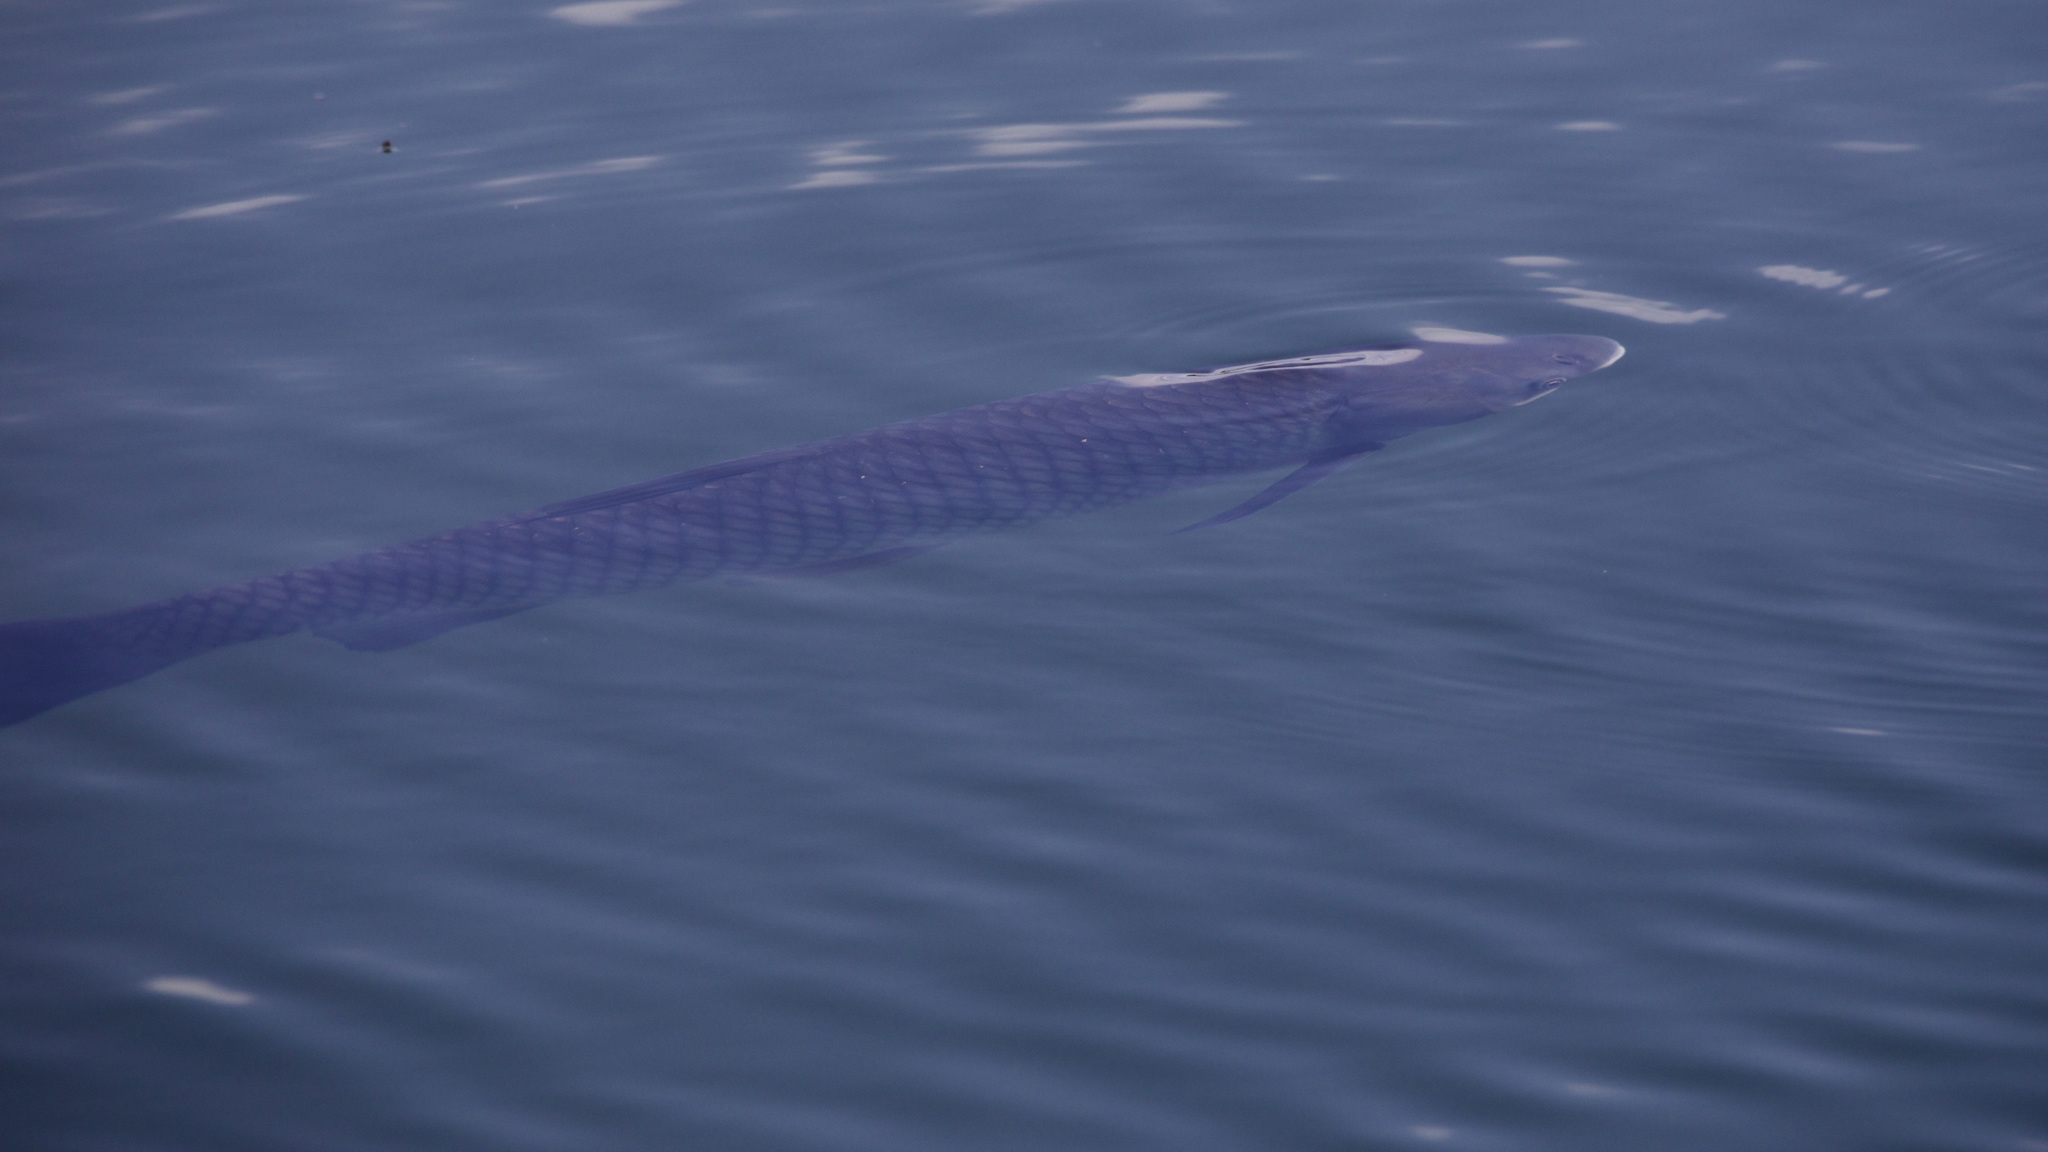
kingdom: Animalia
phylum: Chordata
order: Cypriniformes
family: Cyprinidae
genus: Ctenopharyngodon
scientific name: Ctenopharyngodon idella
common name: Grass carp
